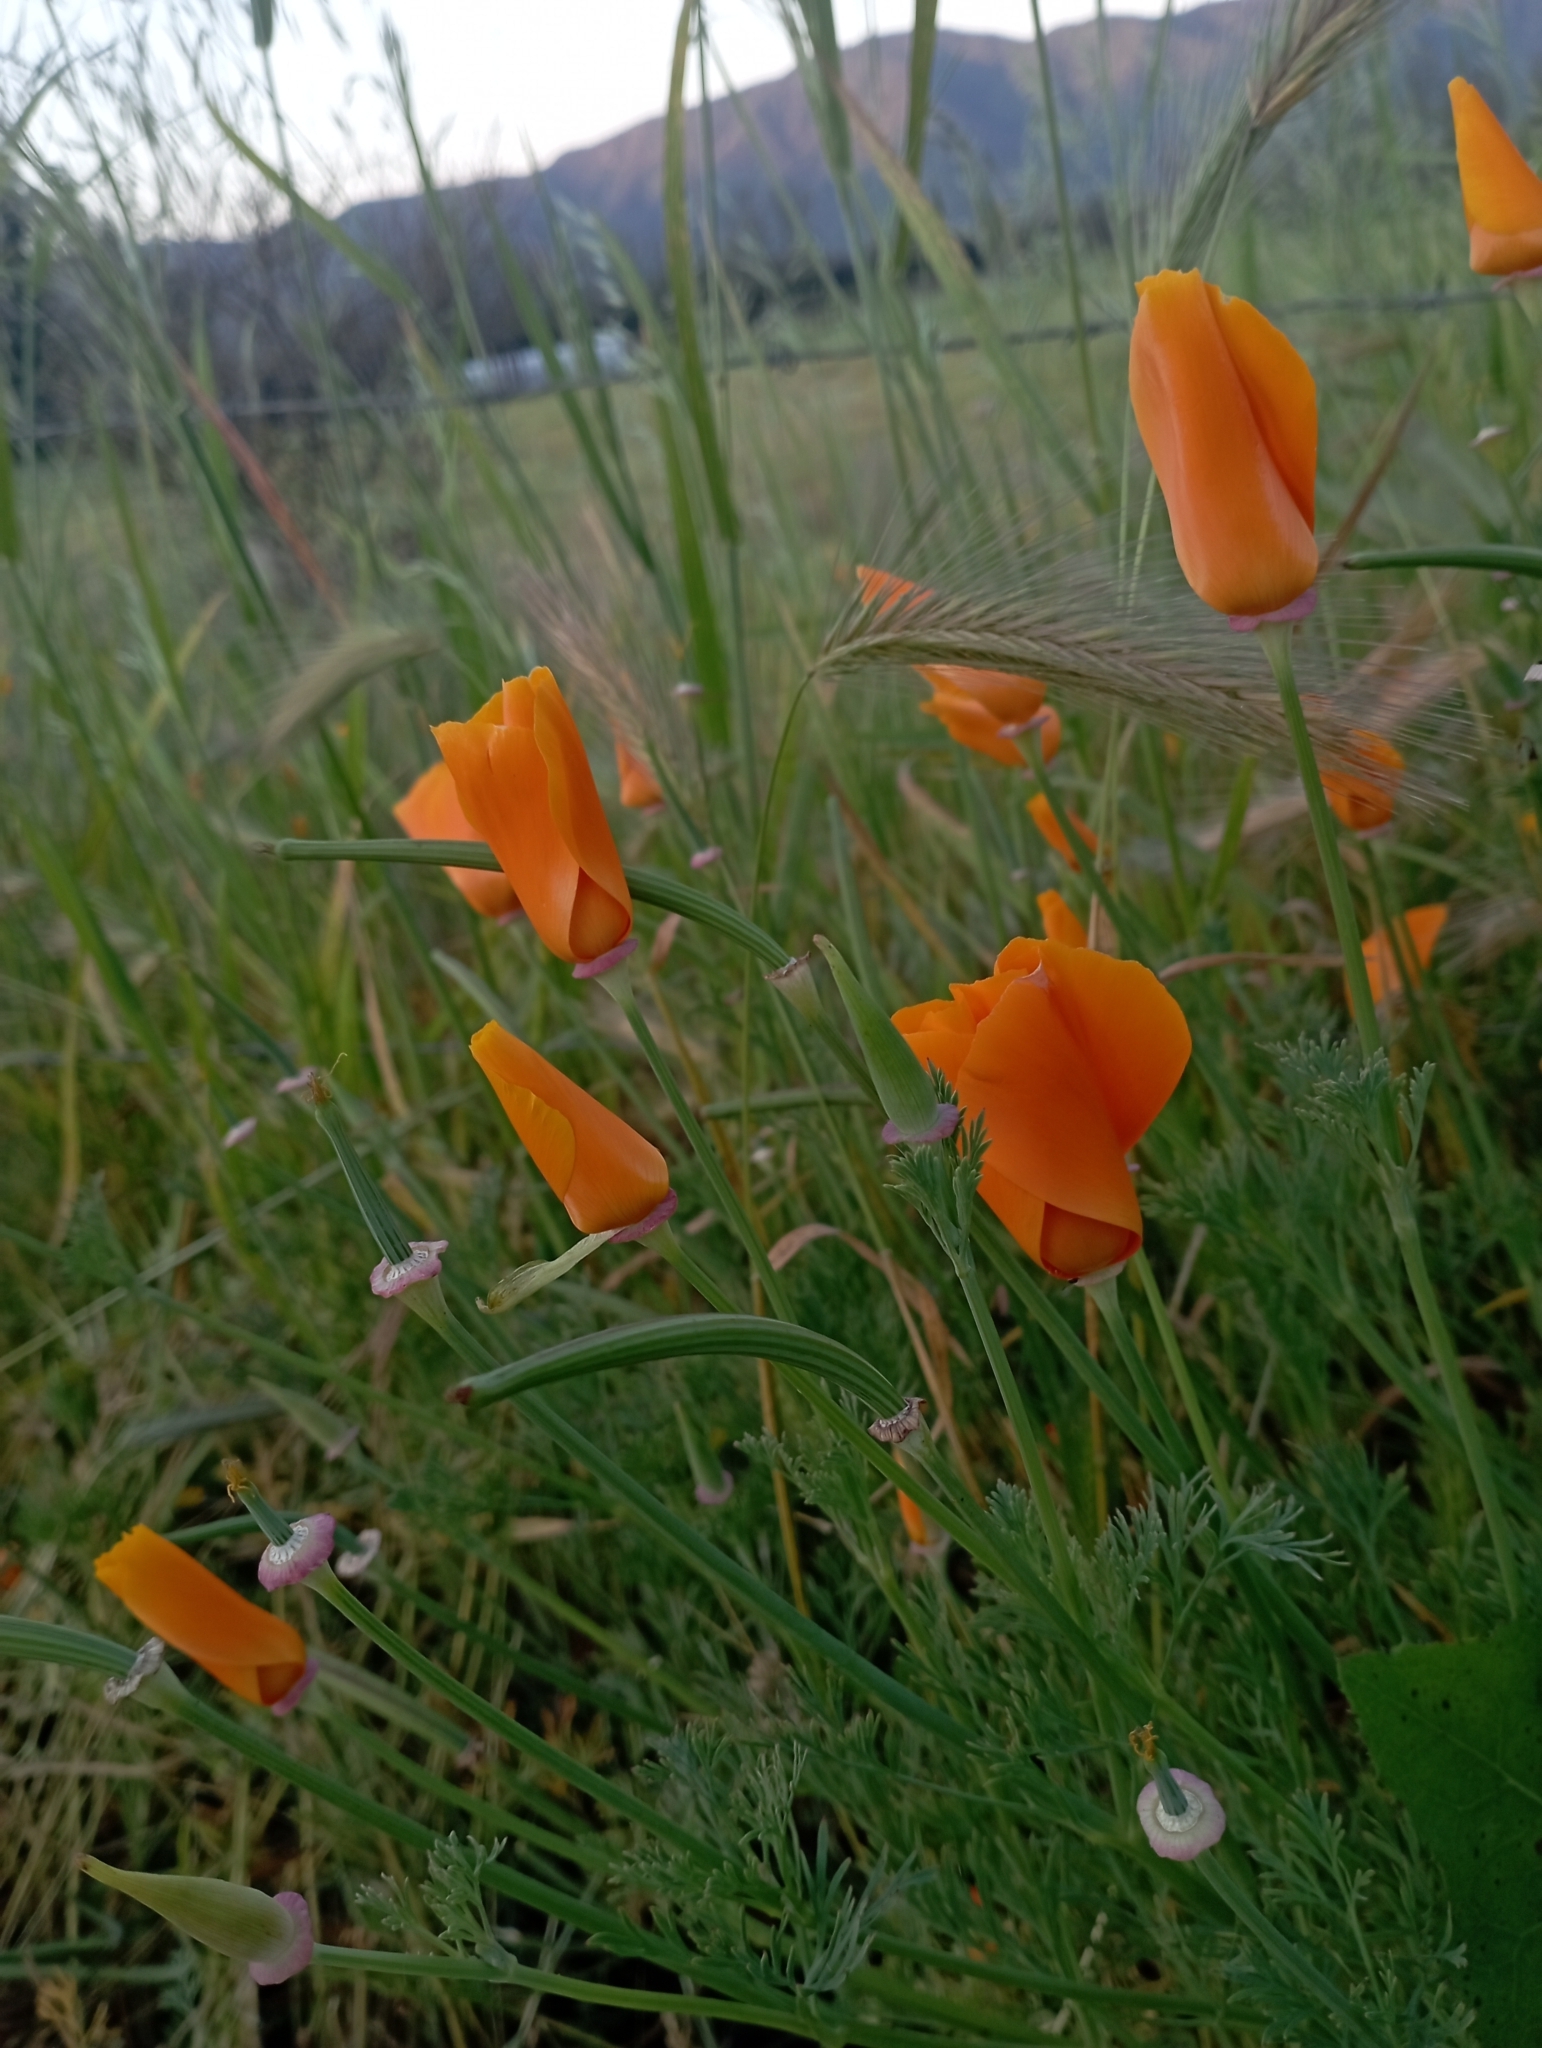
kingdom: Plantae
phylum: Tracheophyta
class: Magnoliopsida
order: Ranunculales
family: Papaveraceae
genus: Eschscholzia
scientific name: Eschscholzia californica
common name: California poppy
